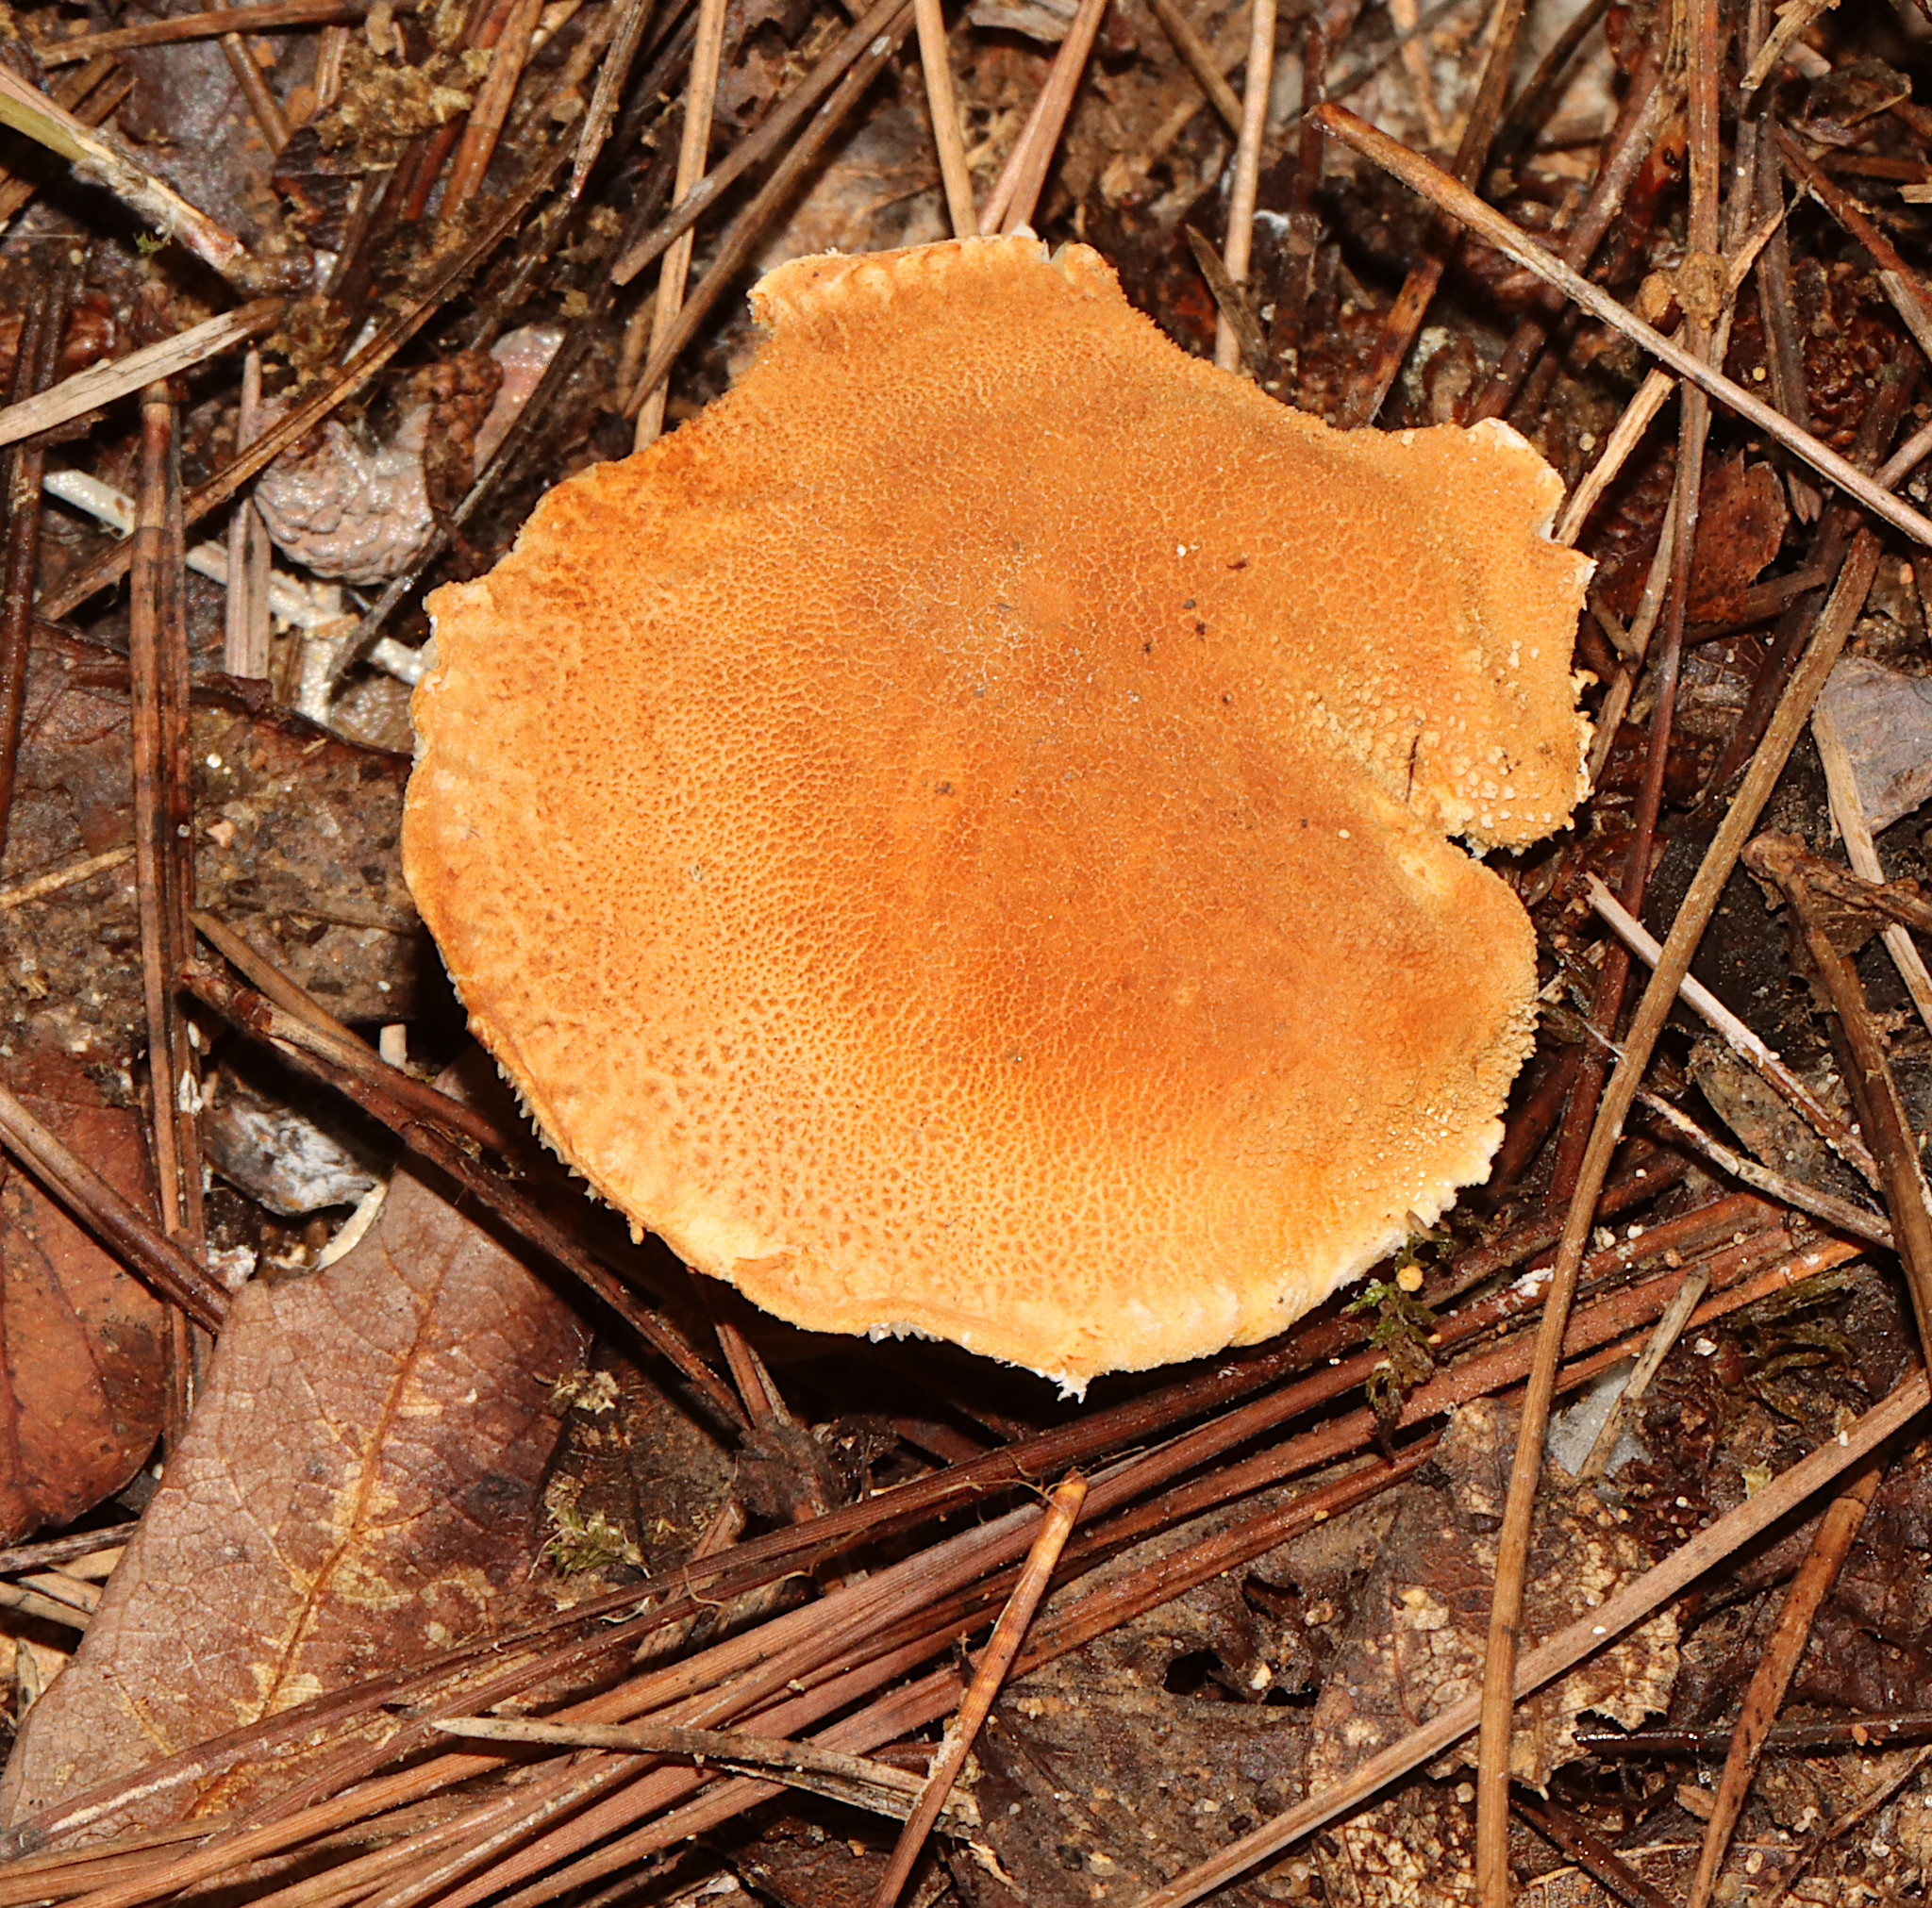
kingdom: Fungi
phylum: Basidiomycota
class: Agaricomycetes
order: Agaricales
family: Agaricaceae
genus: Cystodermella
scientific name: Cystodermella cinnabarina
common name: Cinnabar powdercap
